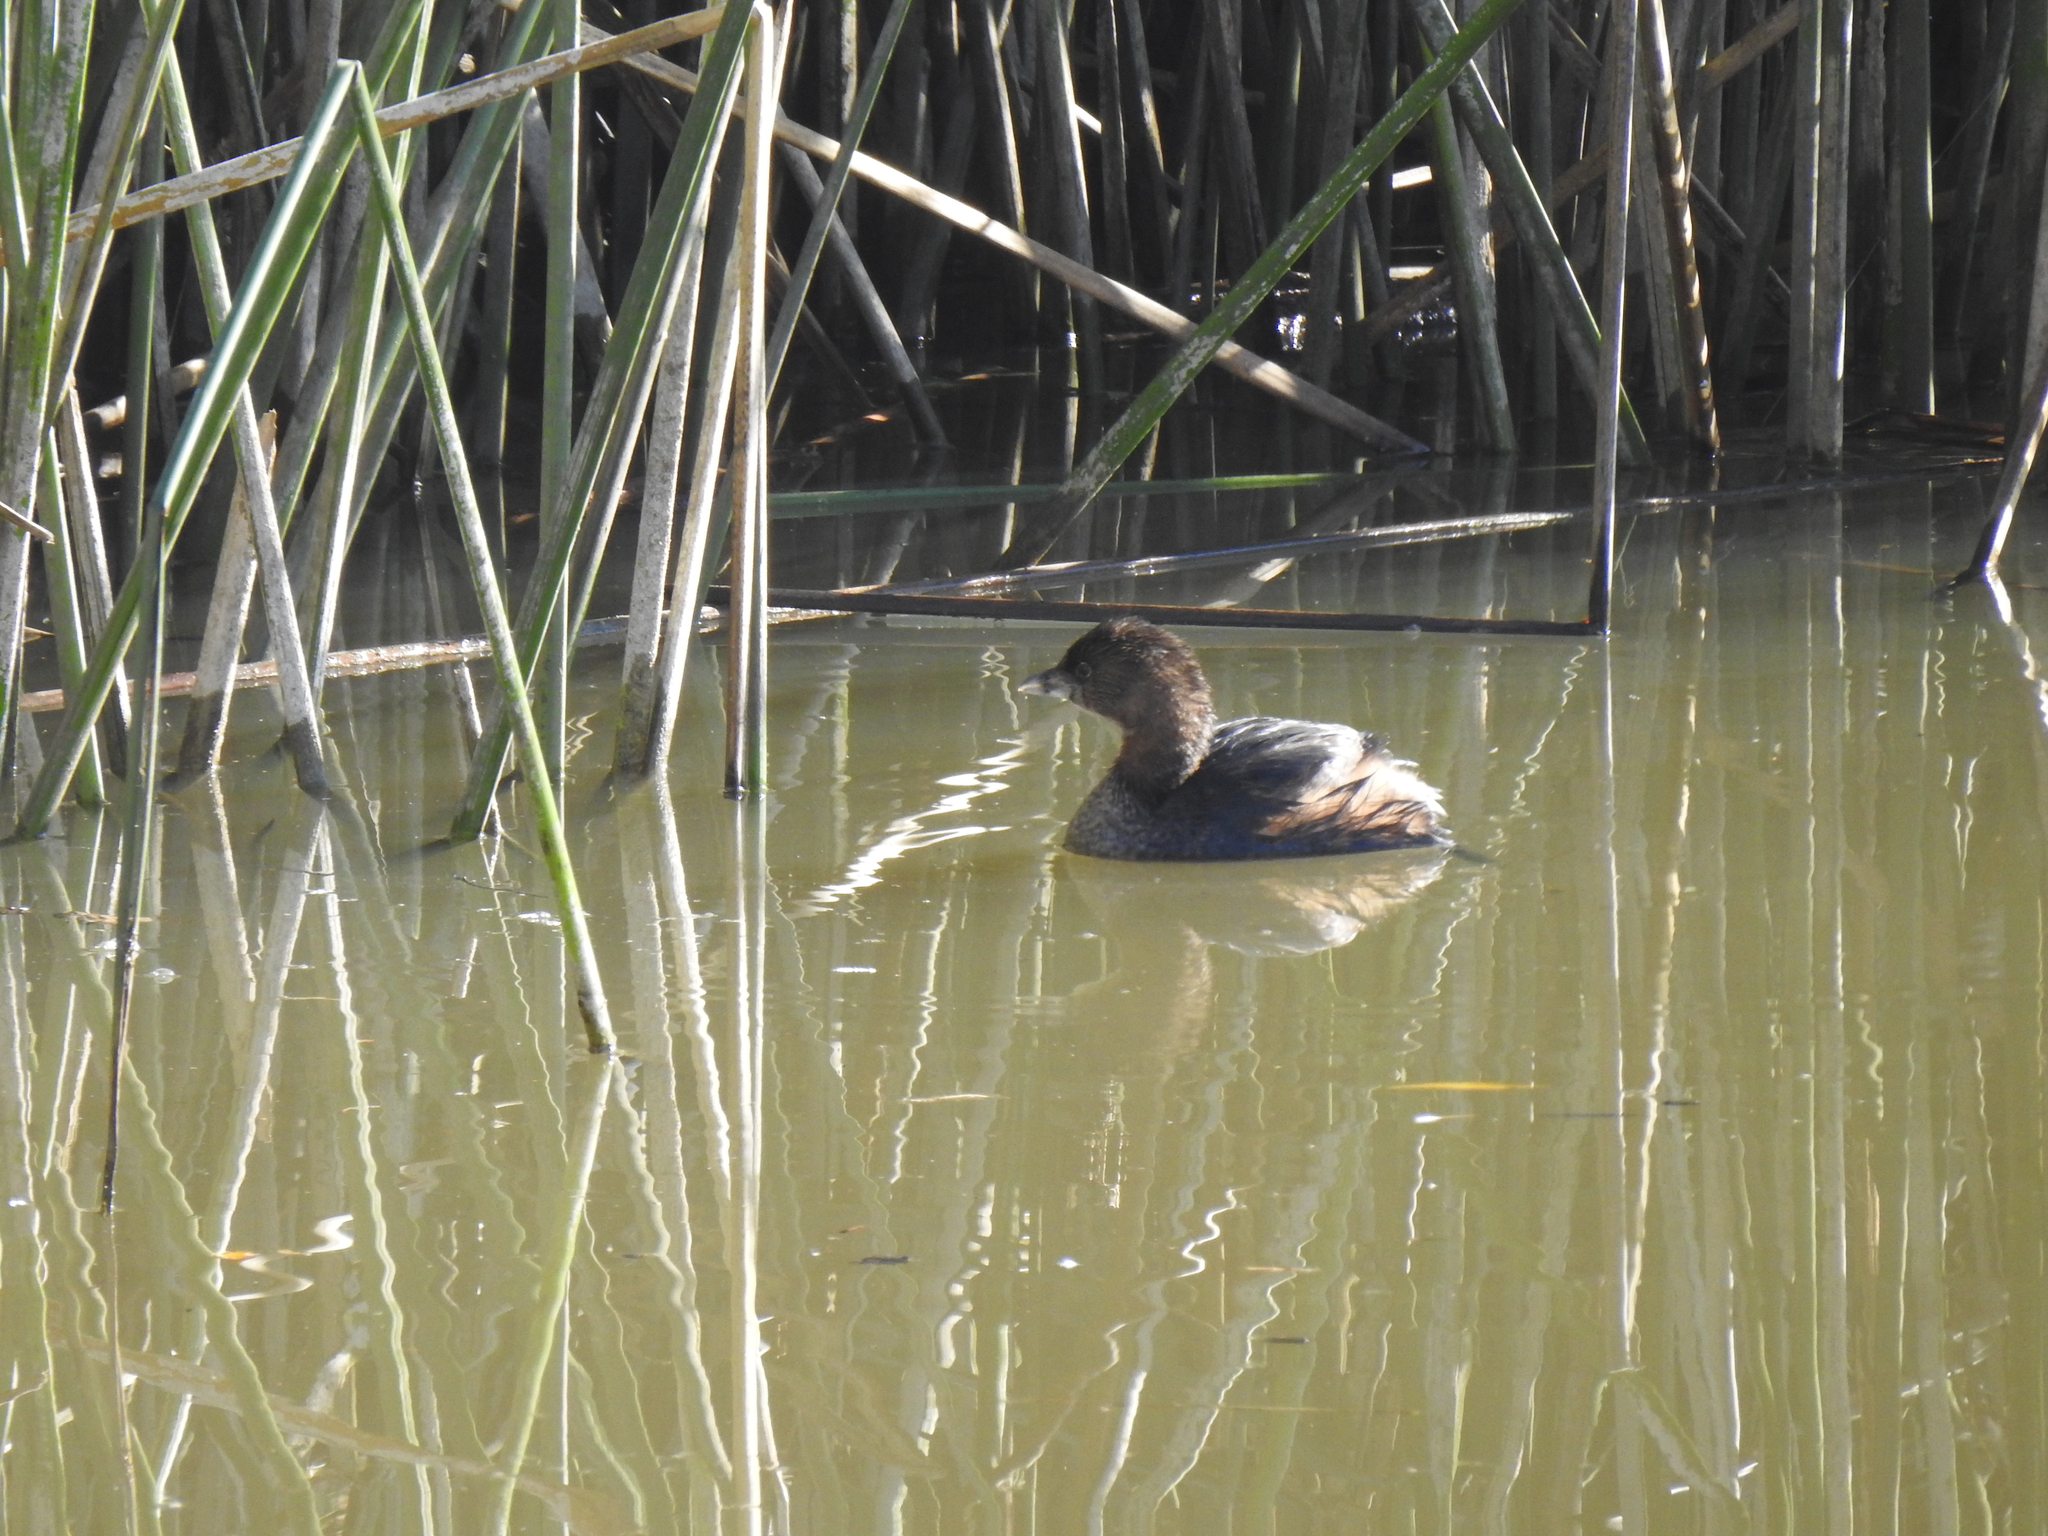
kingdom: Animalia
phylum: Chordata
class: Aves
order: Podicipediformes
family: Podicipedidae
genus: Podilymbus
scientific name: Podilymbus podiceps
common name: Pied-billed grebe
